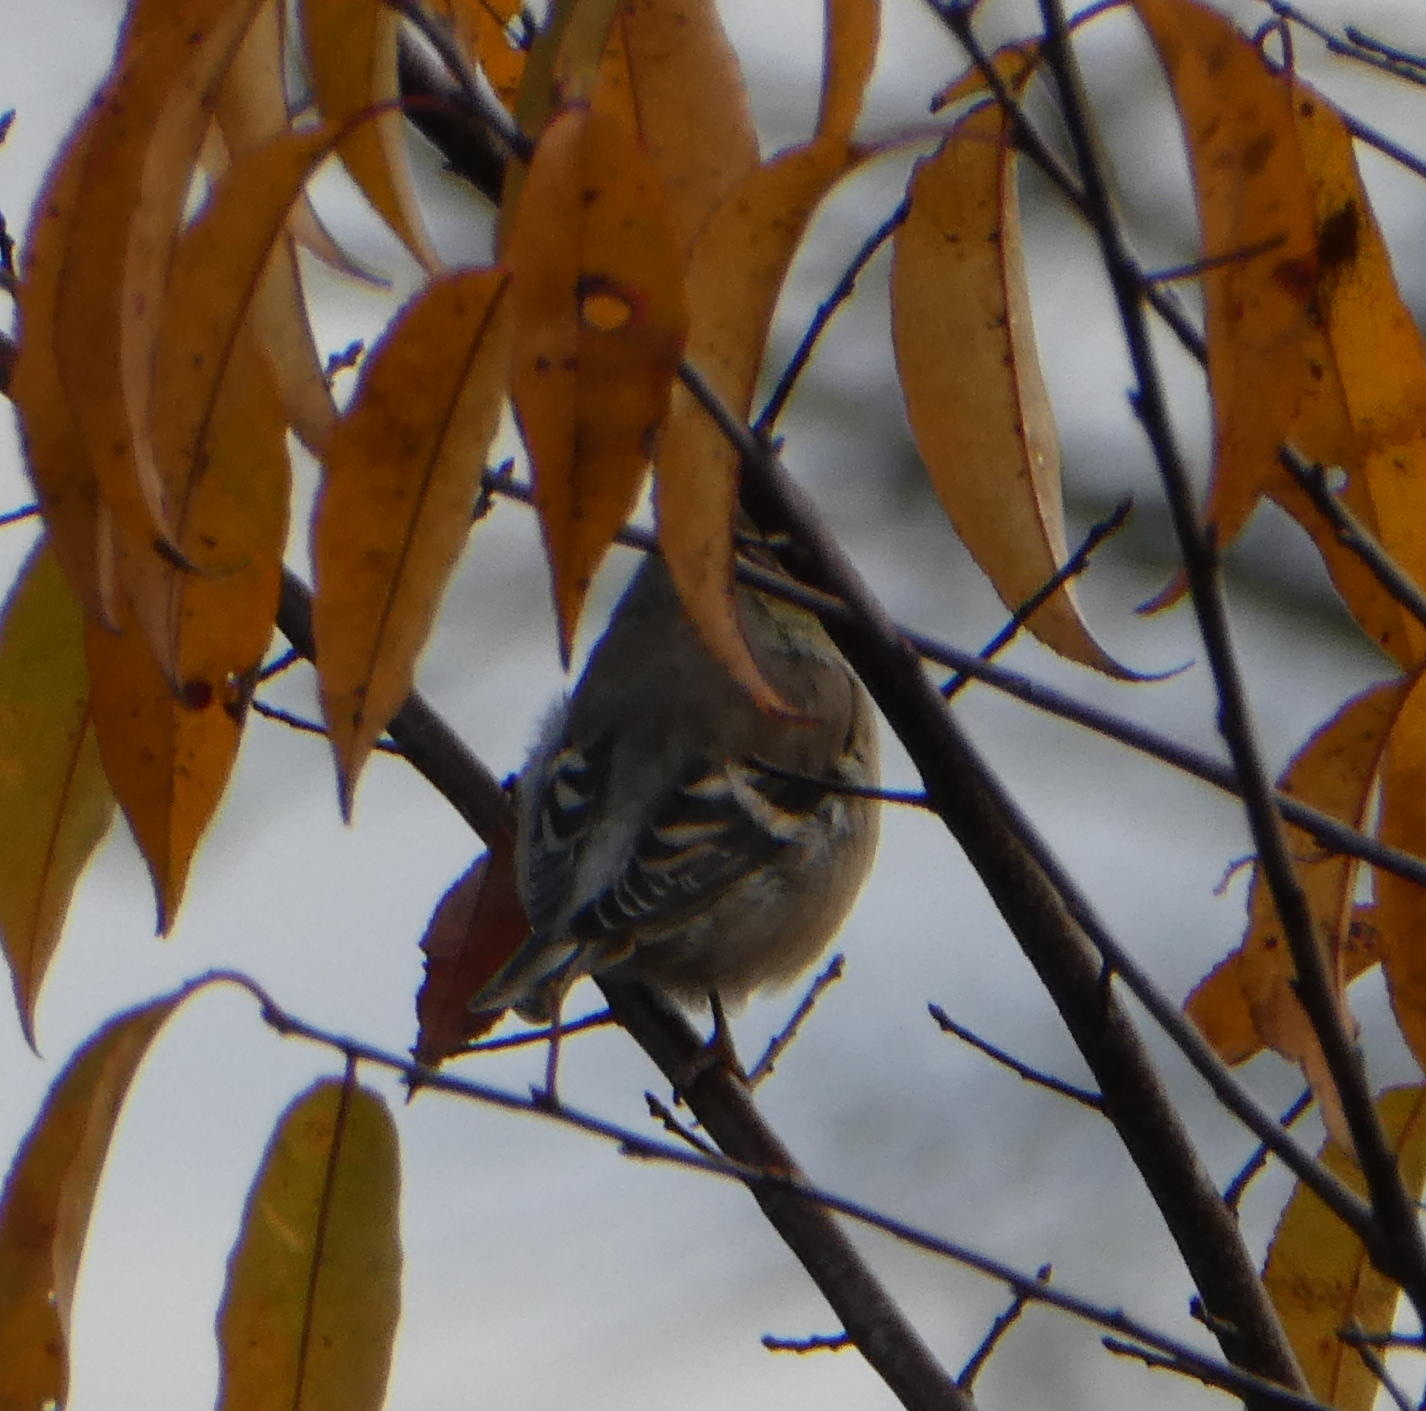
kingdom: Animalia
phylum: Chordata
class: Aves
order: Passeriformes
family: Fringillidae
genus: Spinus
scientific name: Spinus tristis
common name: American goldfinch
